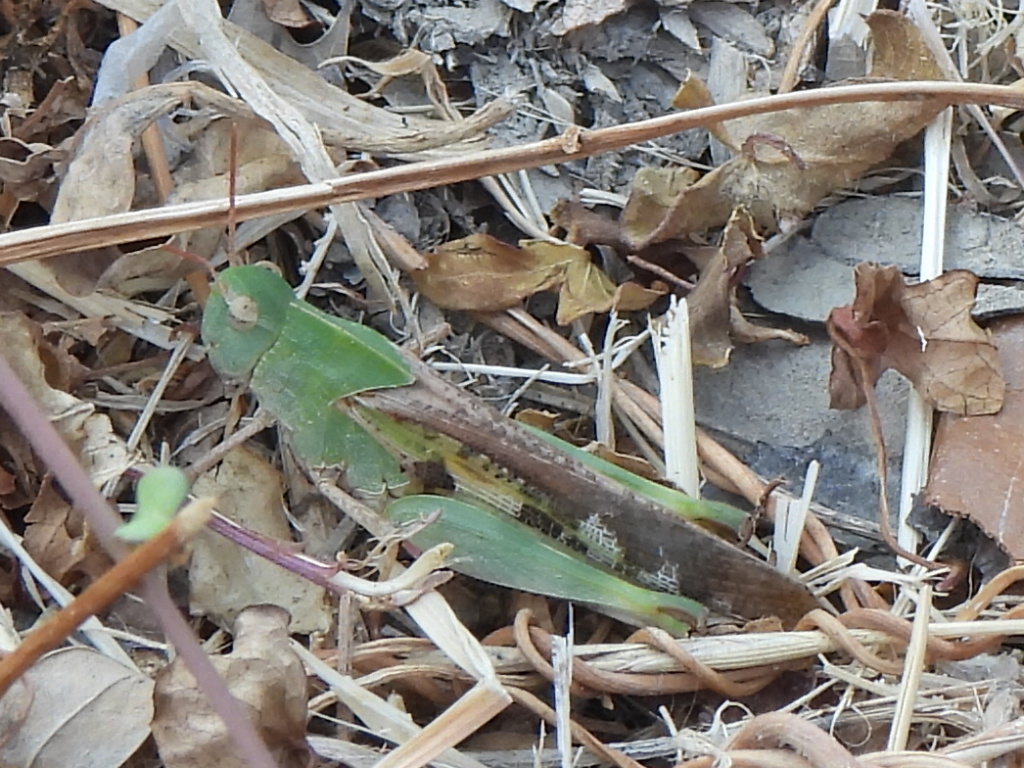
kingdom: Animalia
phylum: Arthropoda
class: Insecta
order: Orthoptera
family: Acrididae
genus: Chortophaga
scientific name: Chortophaga viridifasciata
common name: Green-striped grasshopper
